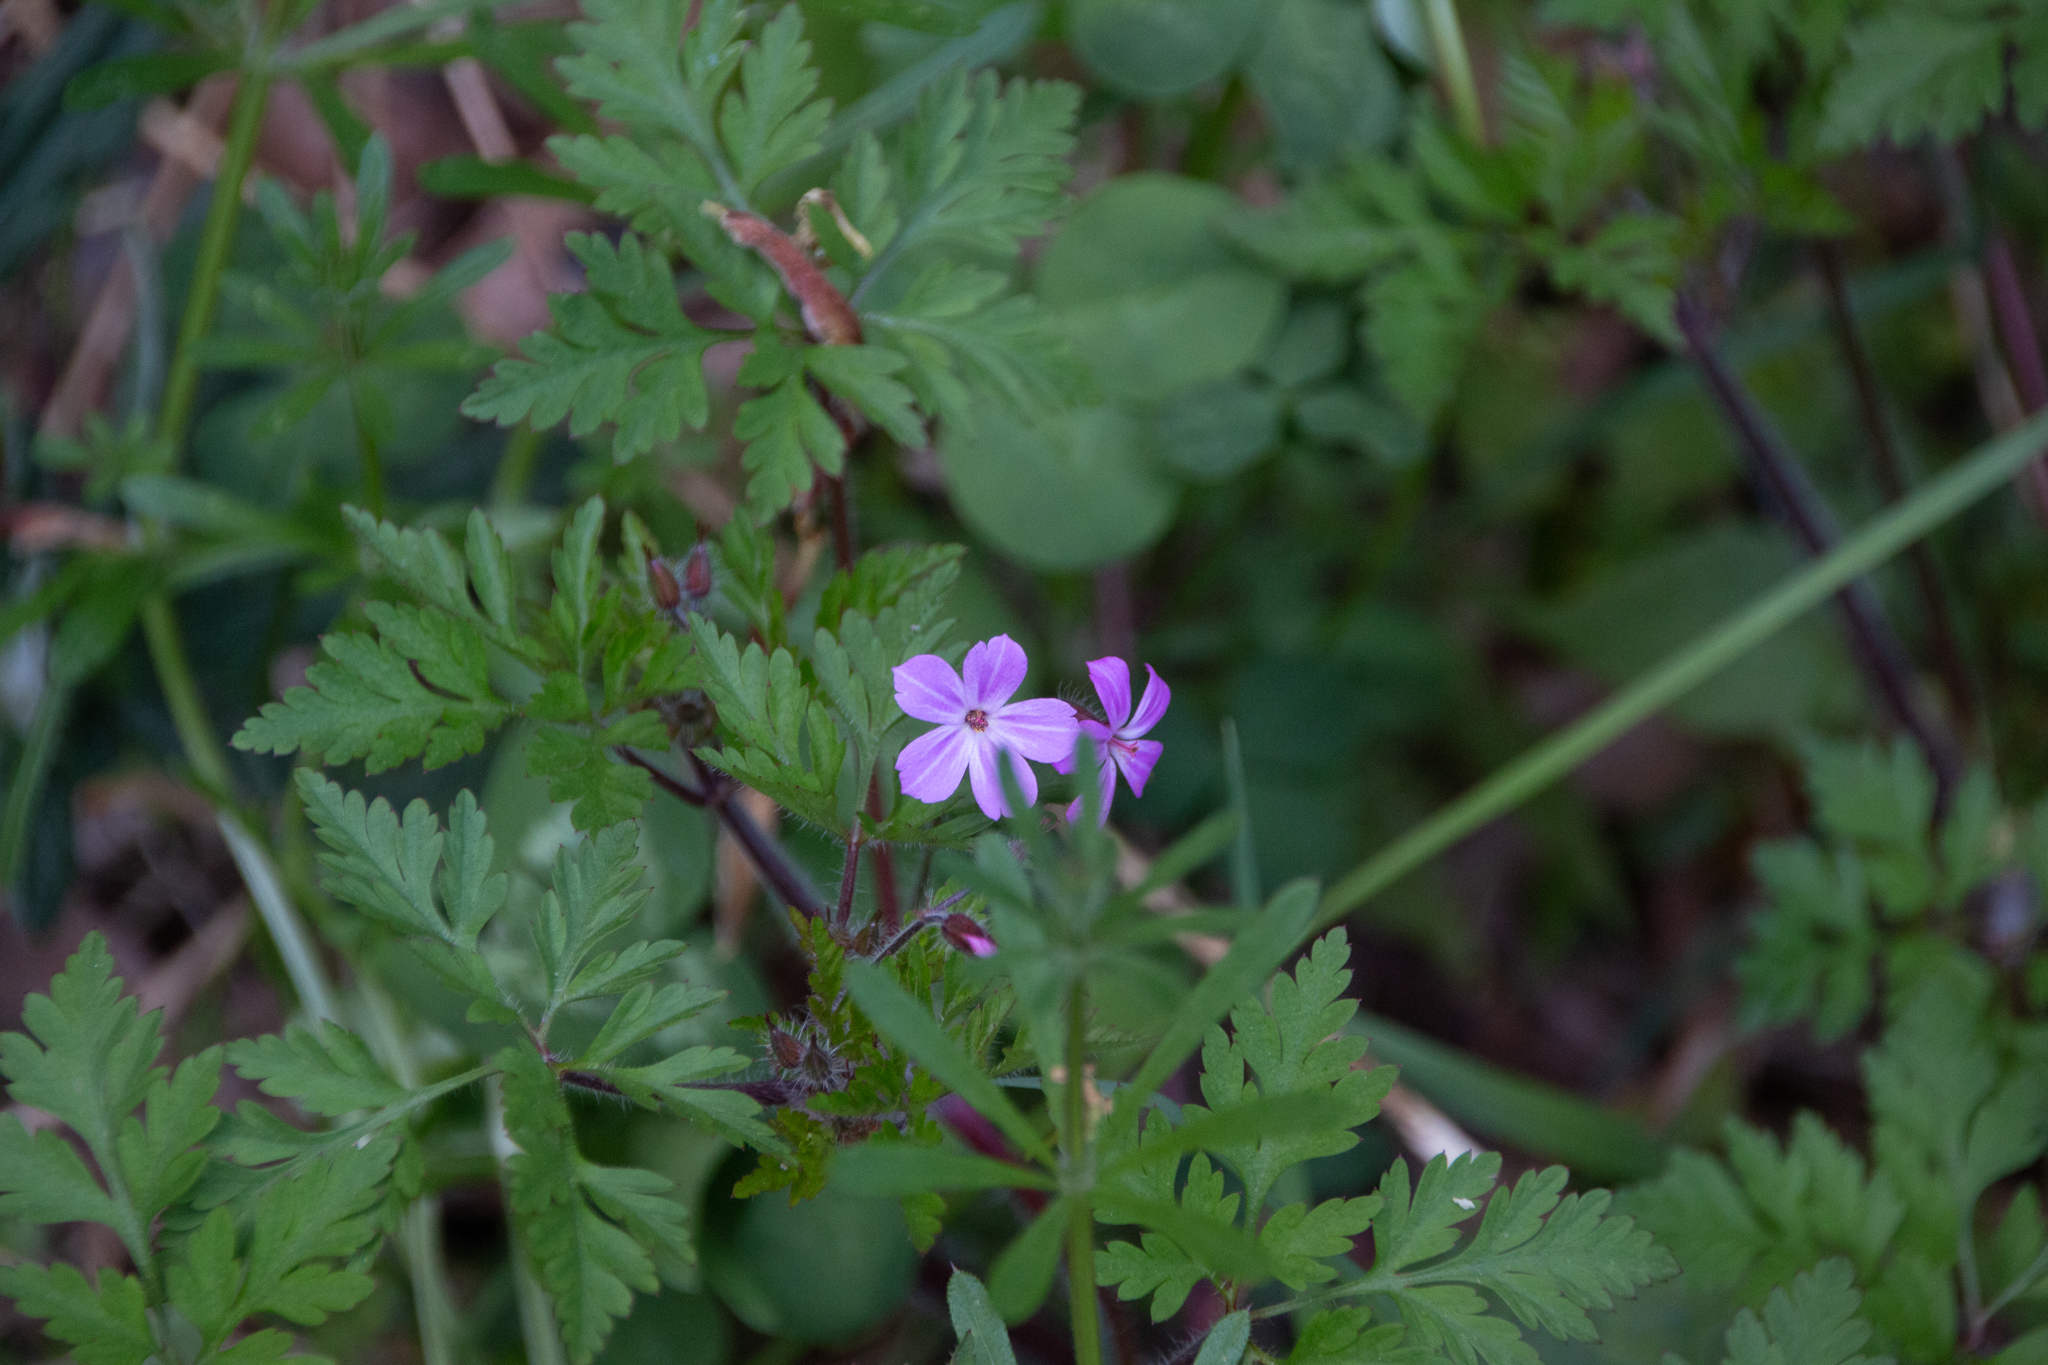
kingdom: Plantae
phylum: Tracheophyta
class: Magnoliopsida
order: Geraniales
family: Geraniaceae
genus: Geranium
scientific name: Geranium robertianum
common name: Herb-robert
